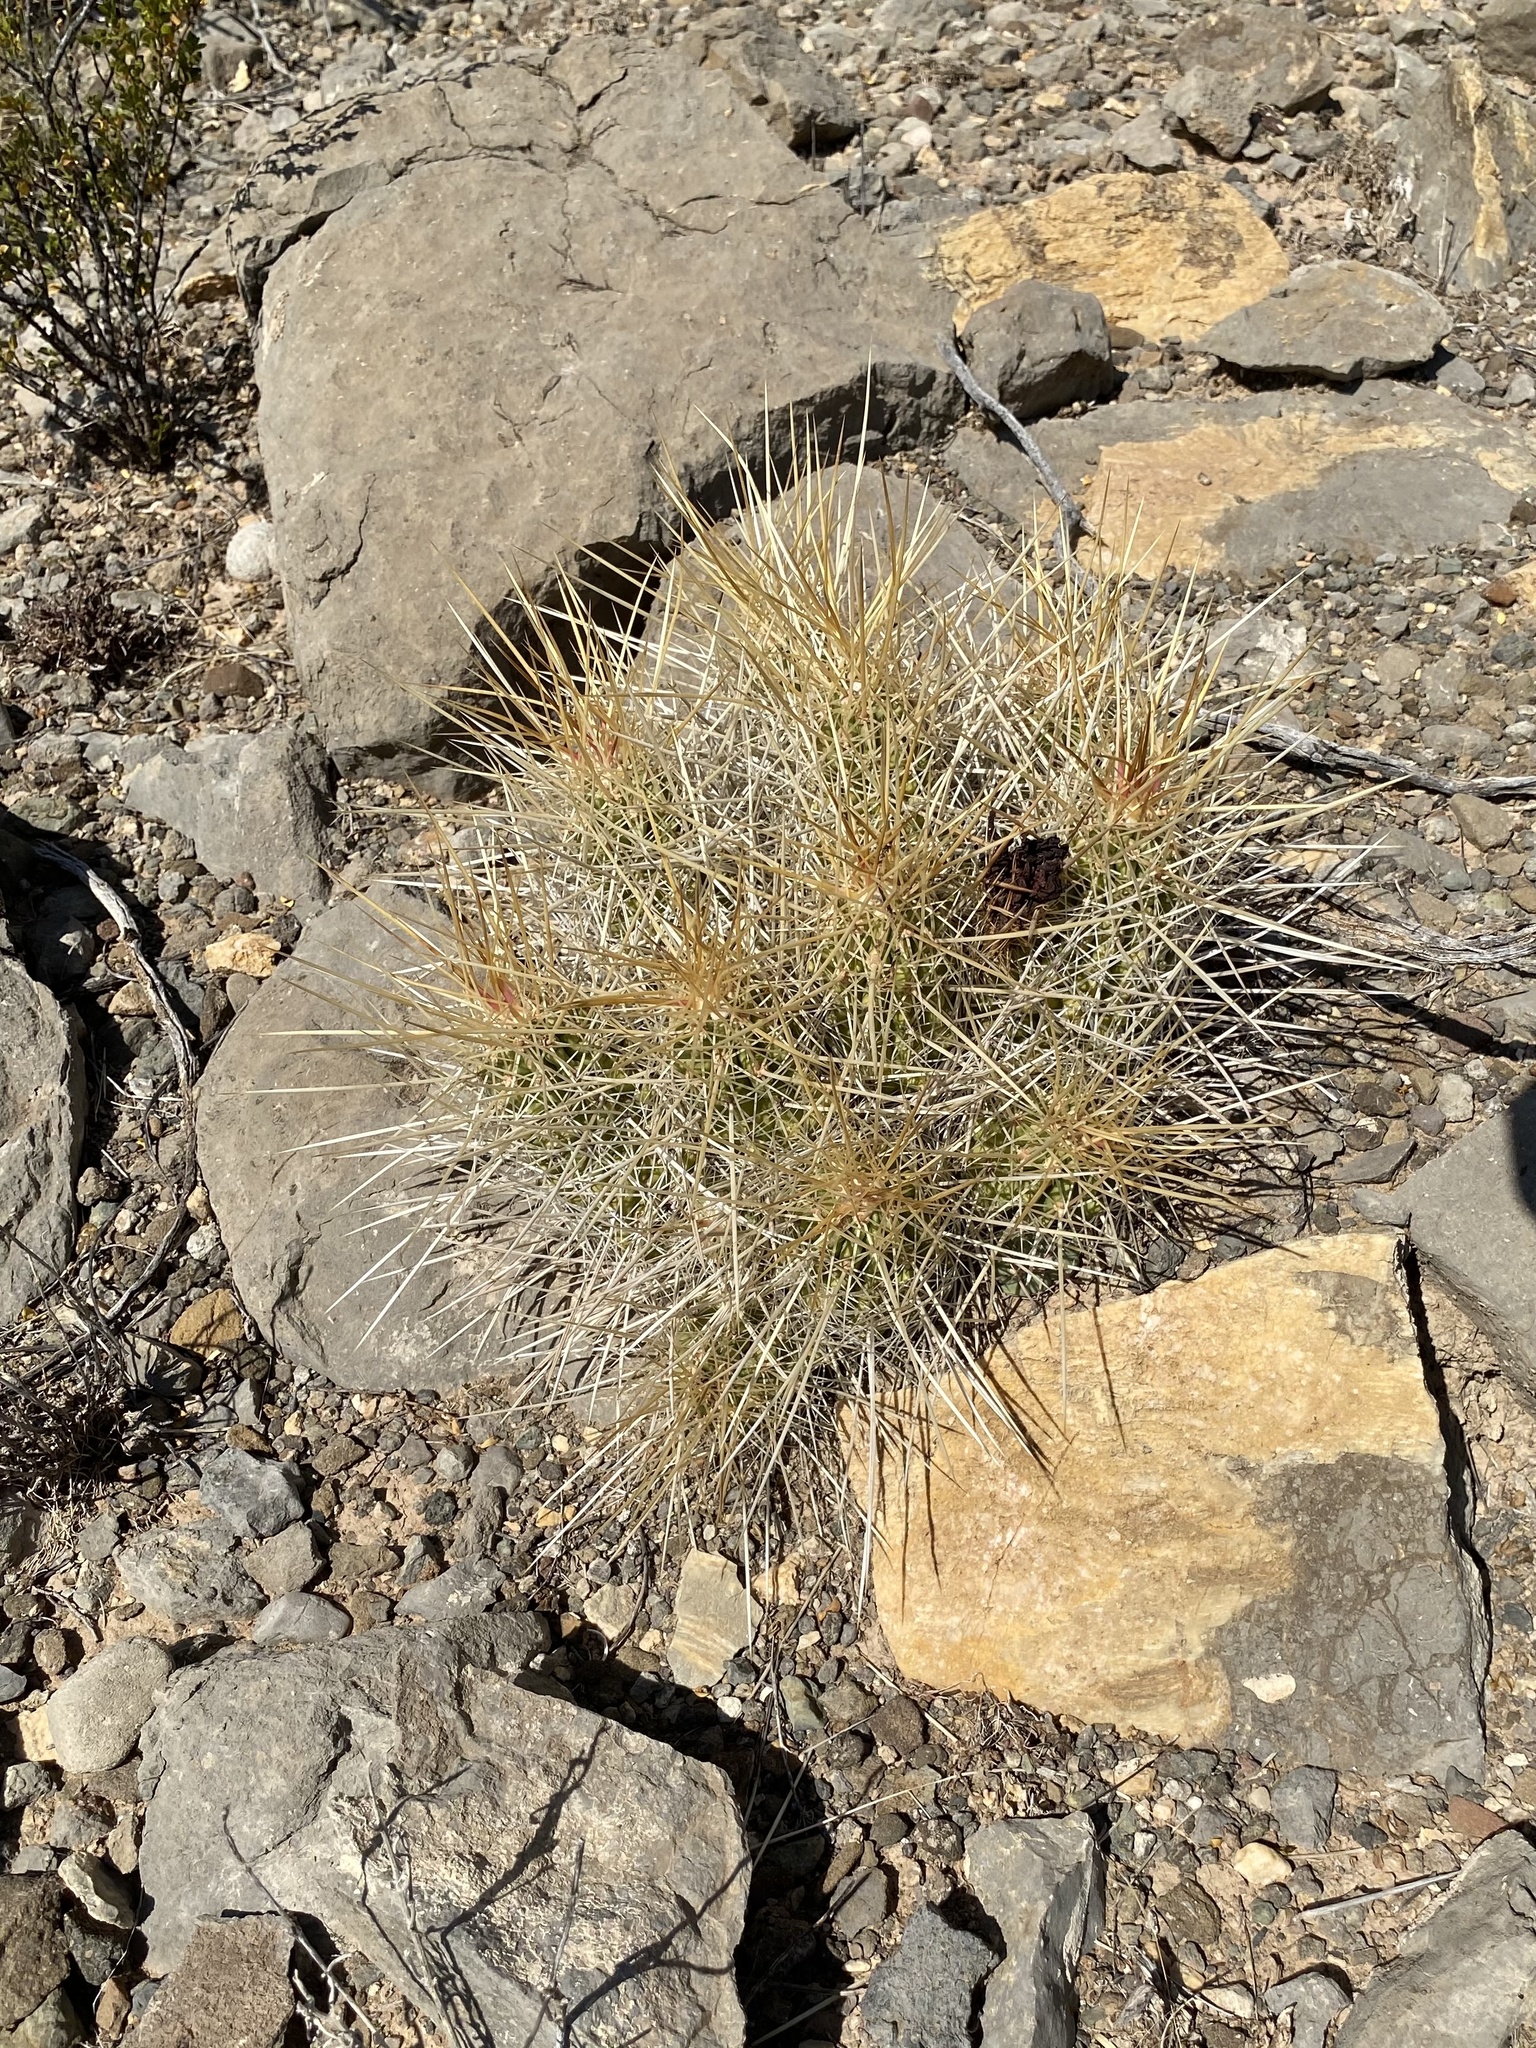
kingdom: Plantae
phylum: Tracheophyta
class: Magnoliopsida
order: Caryophyllales
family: Cactaceae
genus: Echinocereus
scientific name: Echinocereus stramineus
